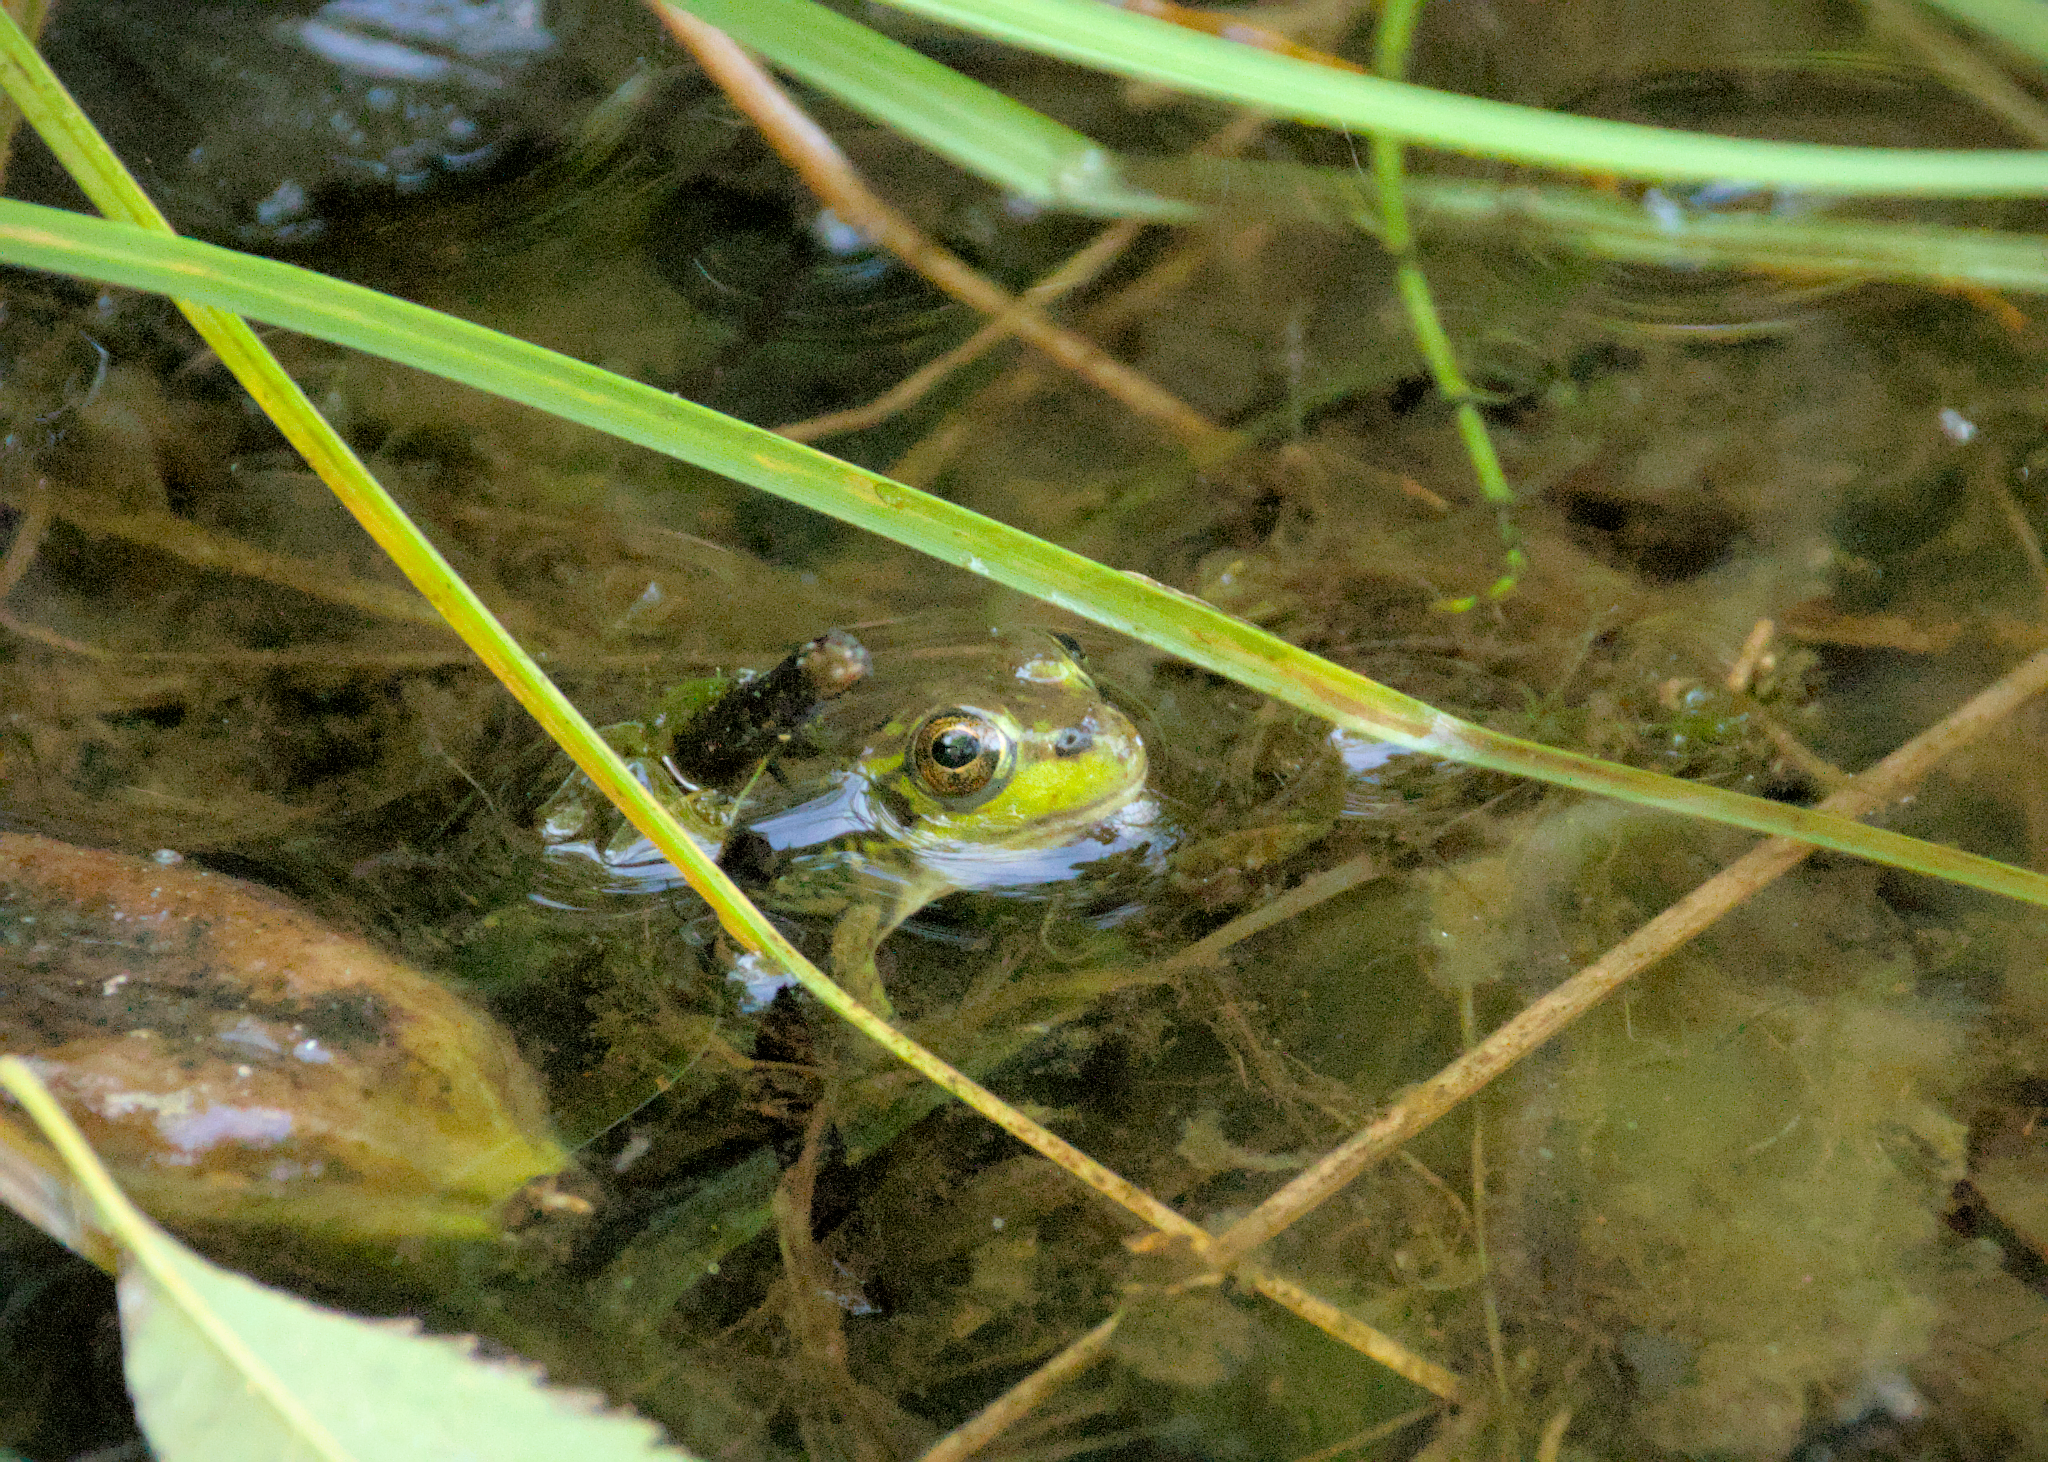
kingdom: Animalia
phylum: Chordata
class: Amphibia
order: Anura
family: Ranidae
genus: Lithobates
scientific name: Lithobates septentrionalis
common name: Mink frog
